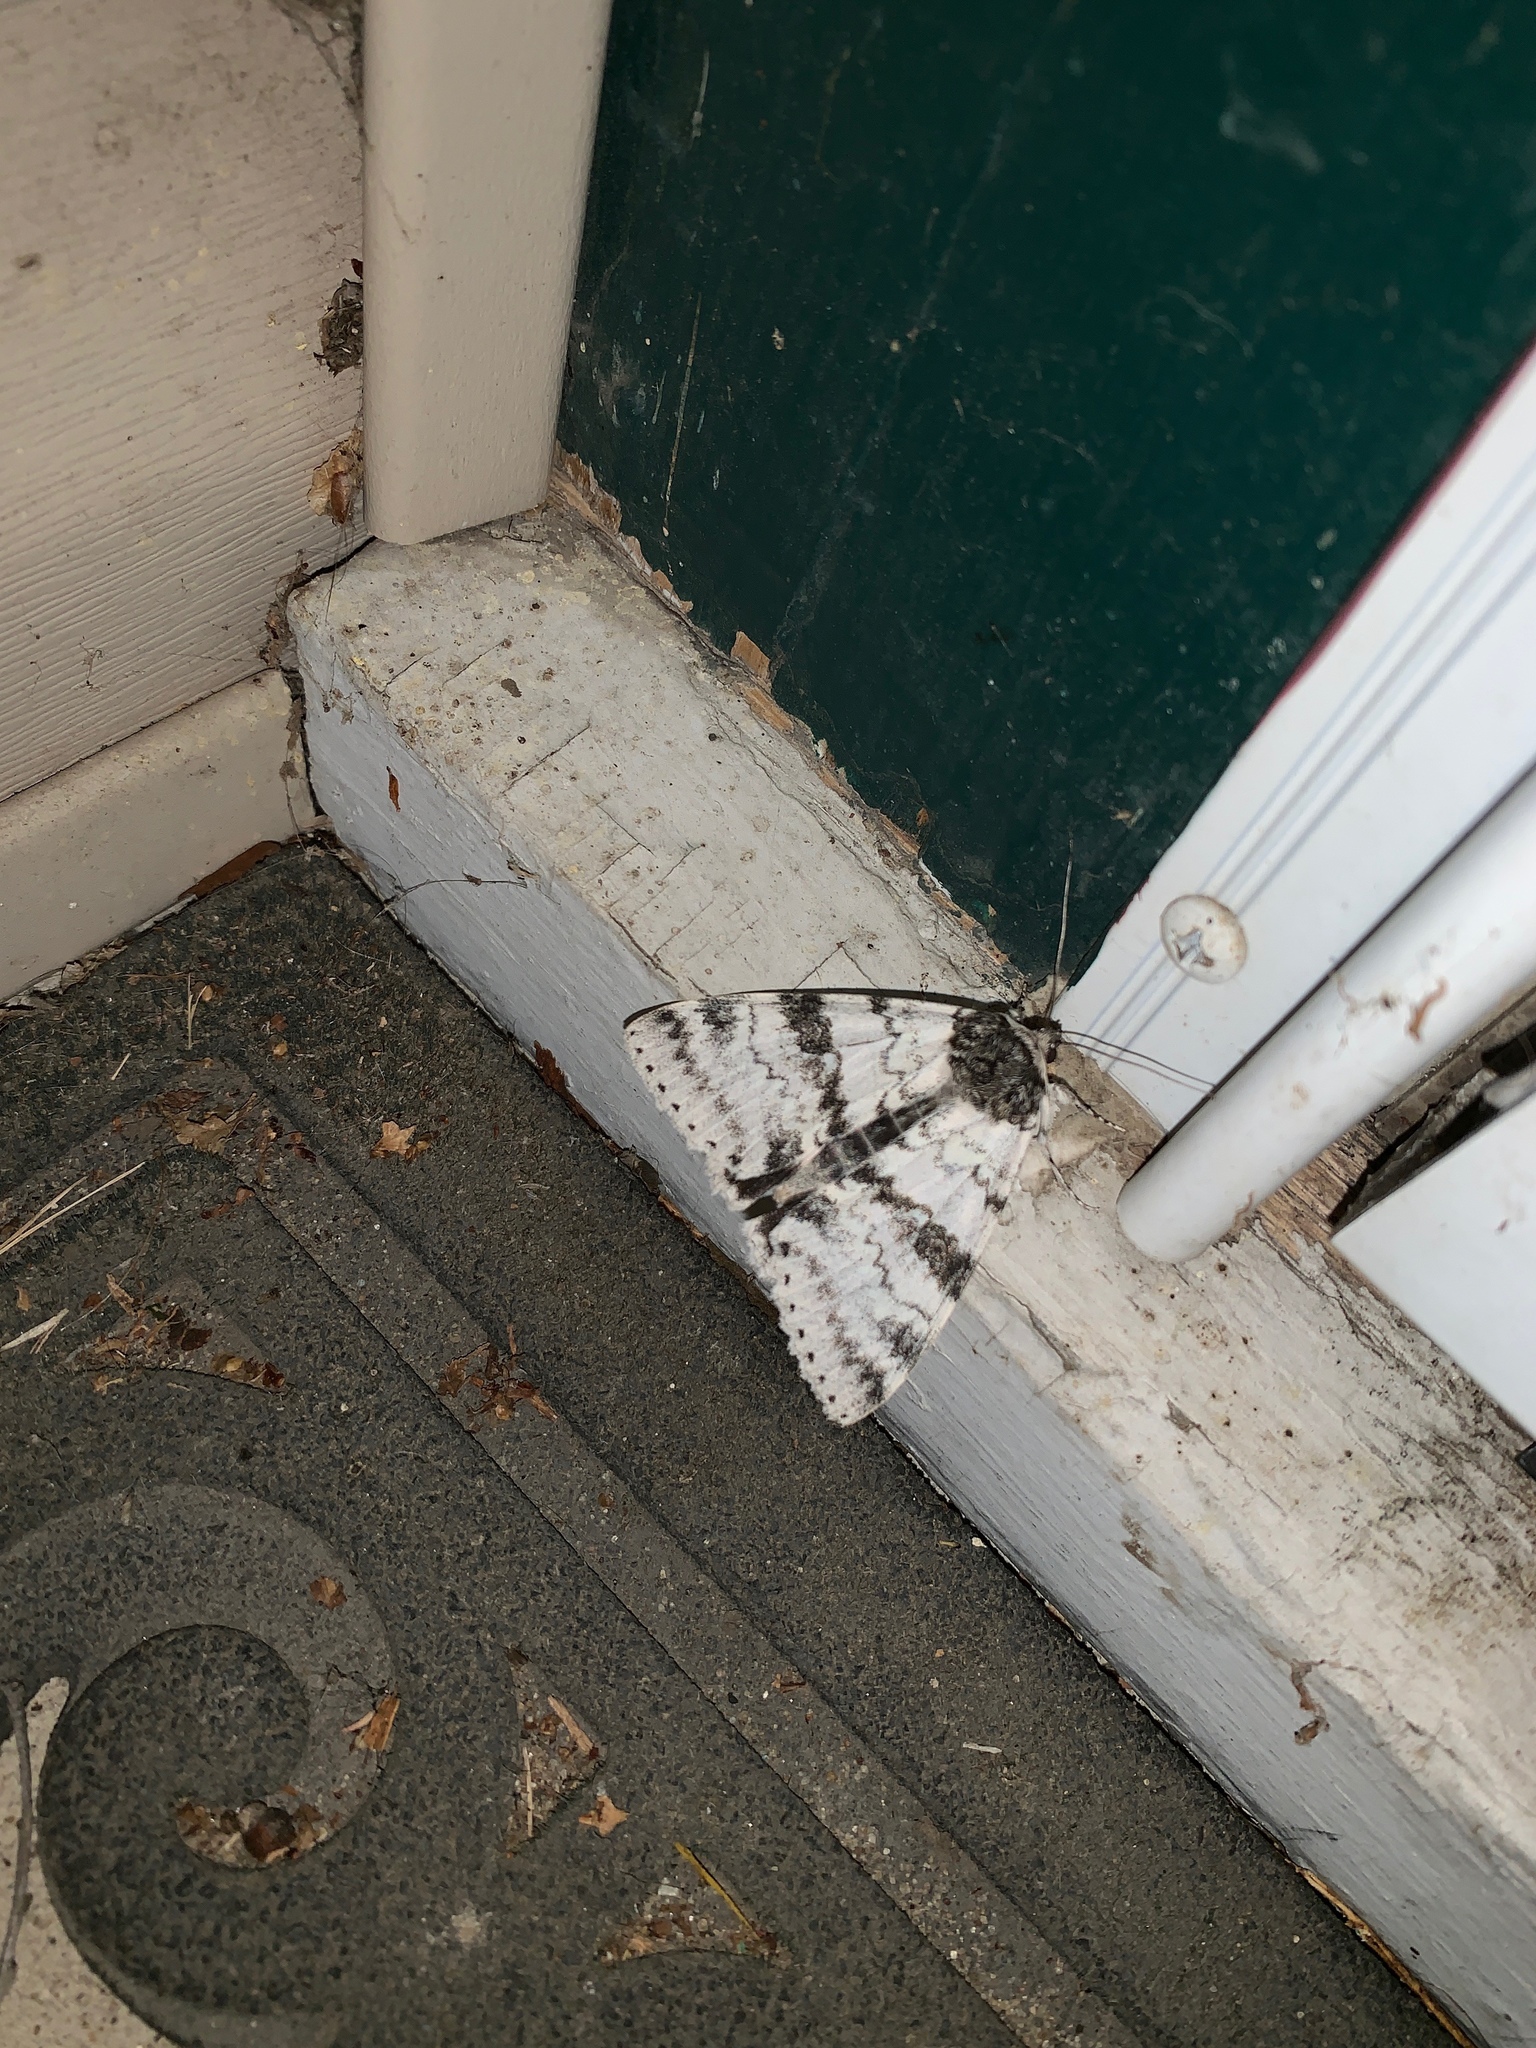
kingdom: Animalia
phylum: Arthropoda
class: Insecta
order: Lepidoptera
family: Erebidae
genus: Catocala
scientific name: Catocala relicta
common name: White underwing
